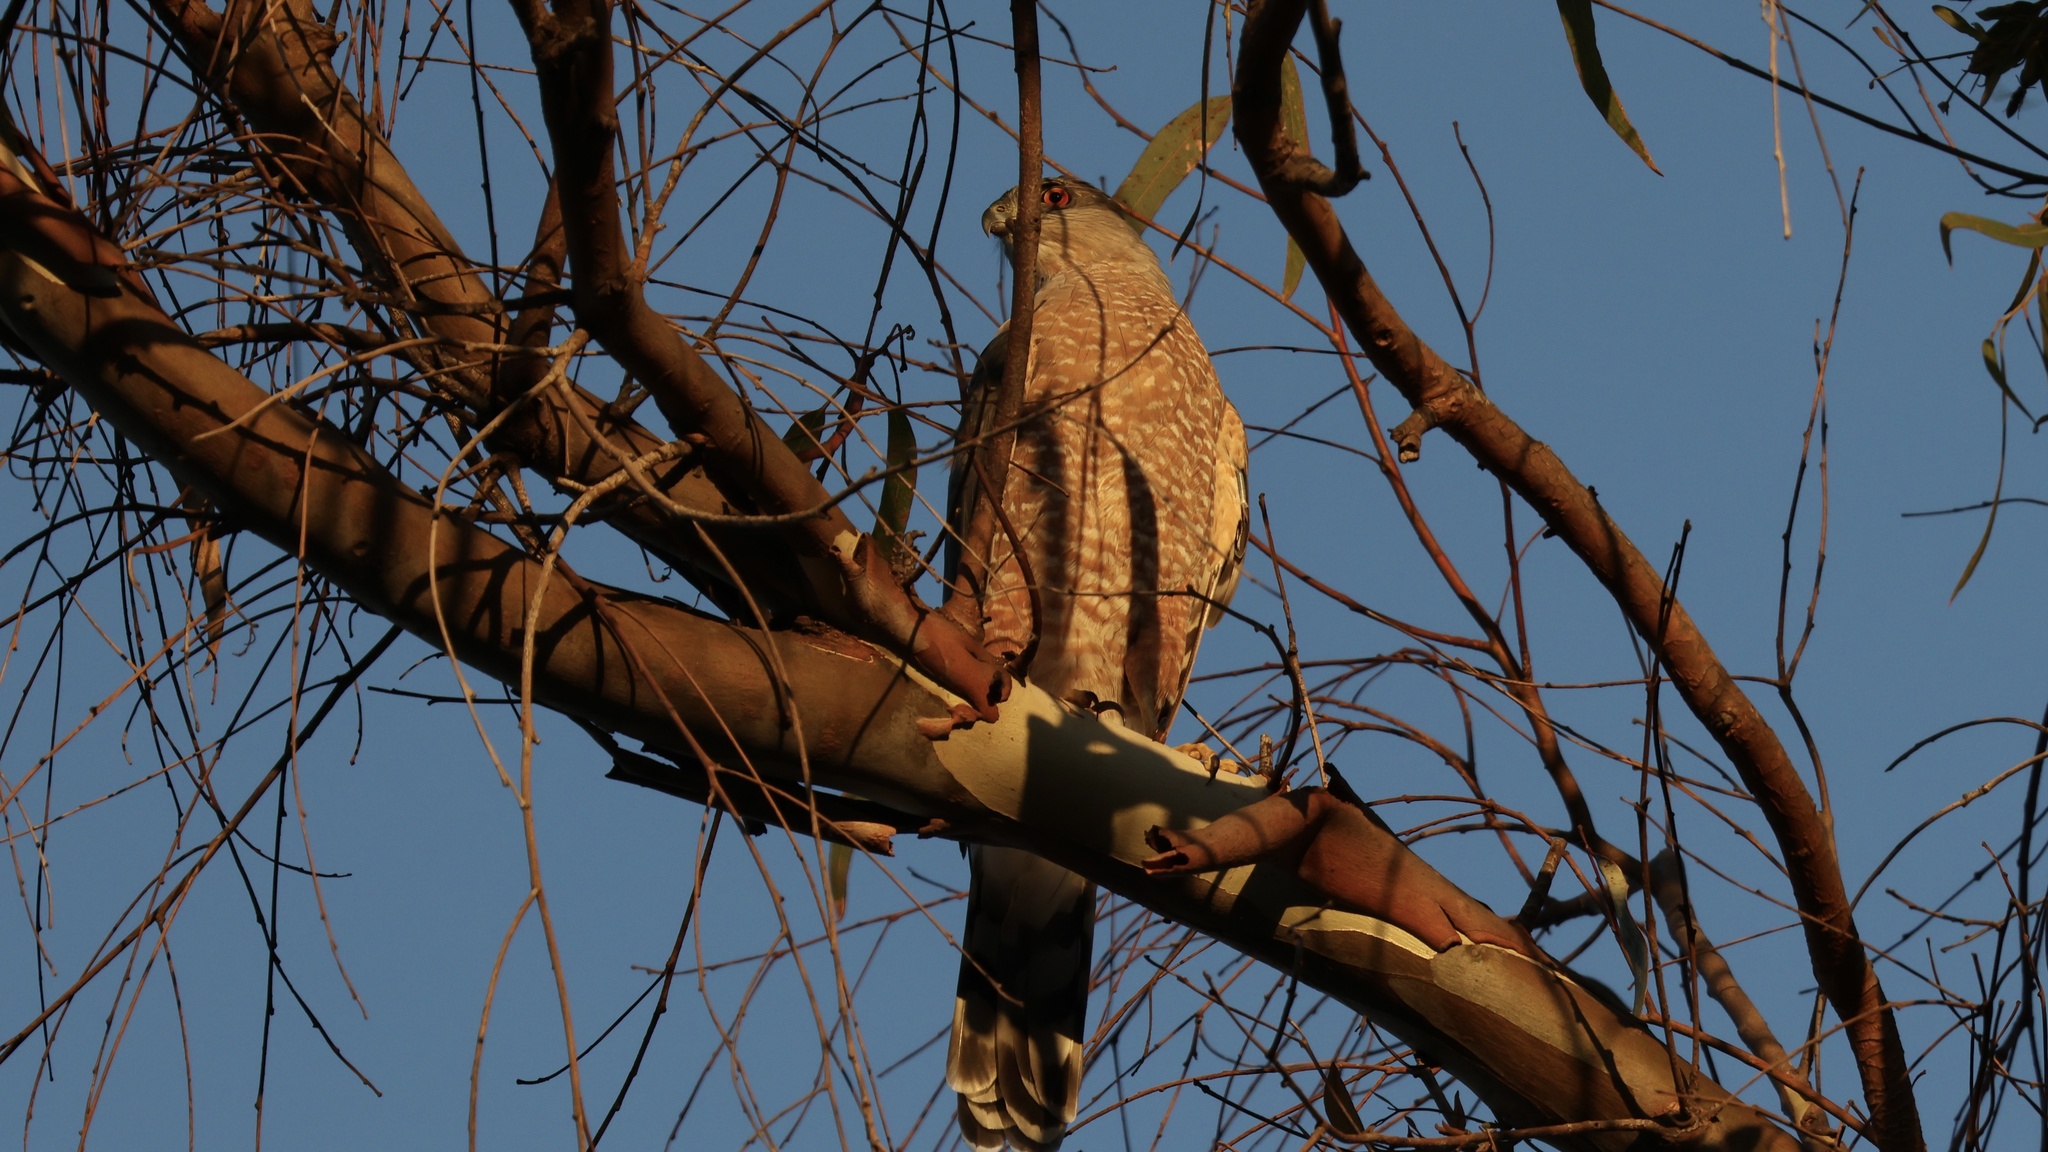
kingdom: Animalia
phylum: Chordata
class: Aves
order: Accipitriformes
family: Accipitridae
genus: Accipiter
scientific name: Accipiter cooperii
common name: Cooper's hawk
